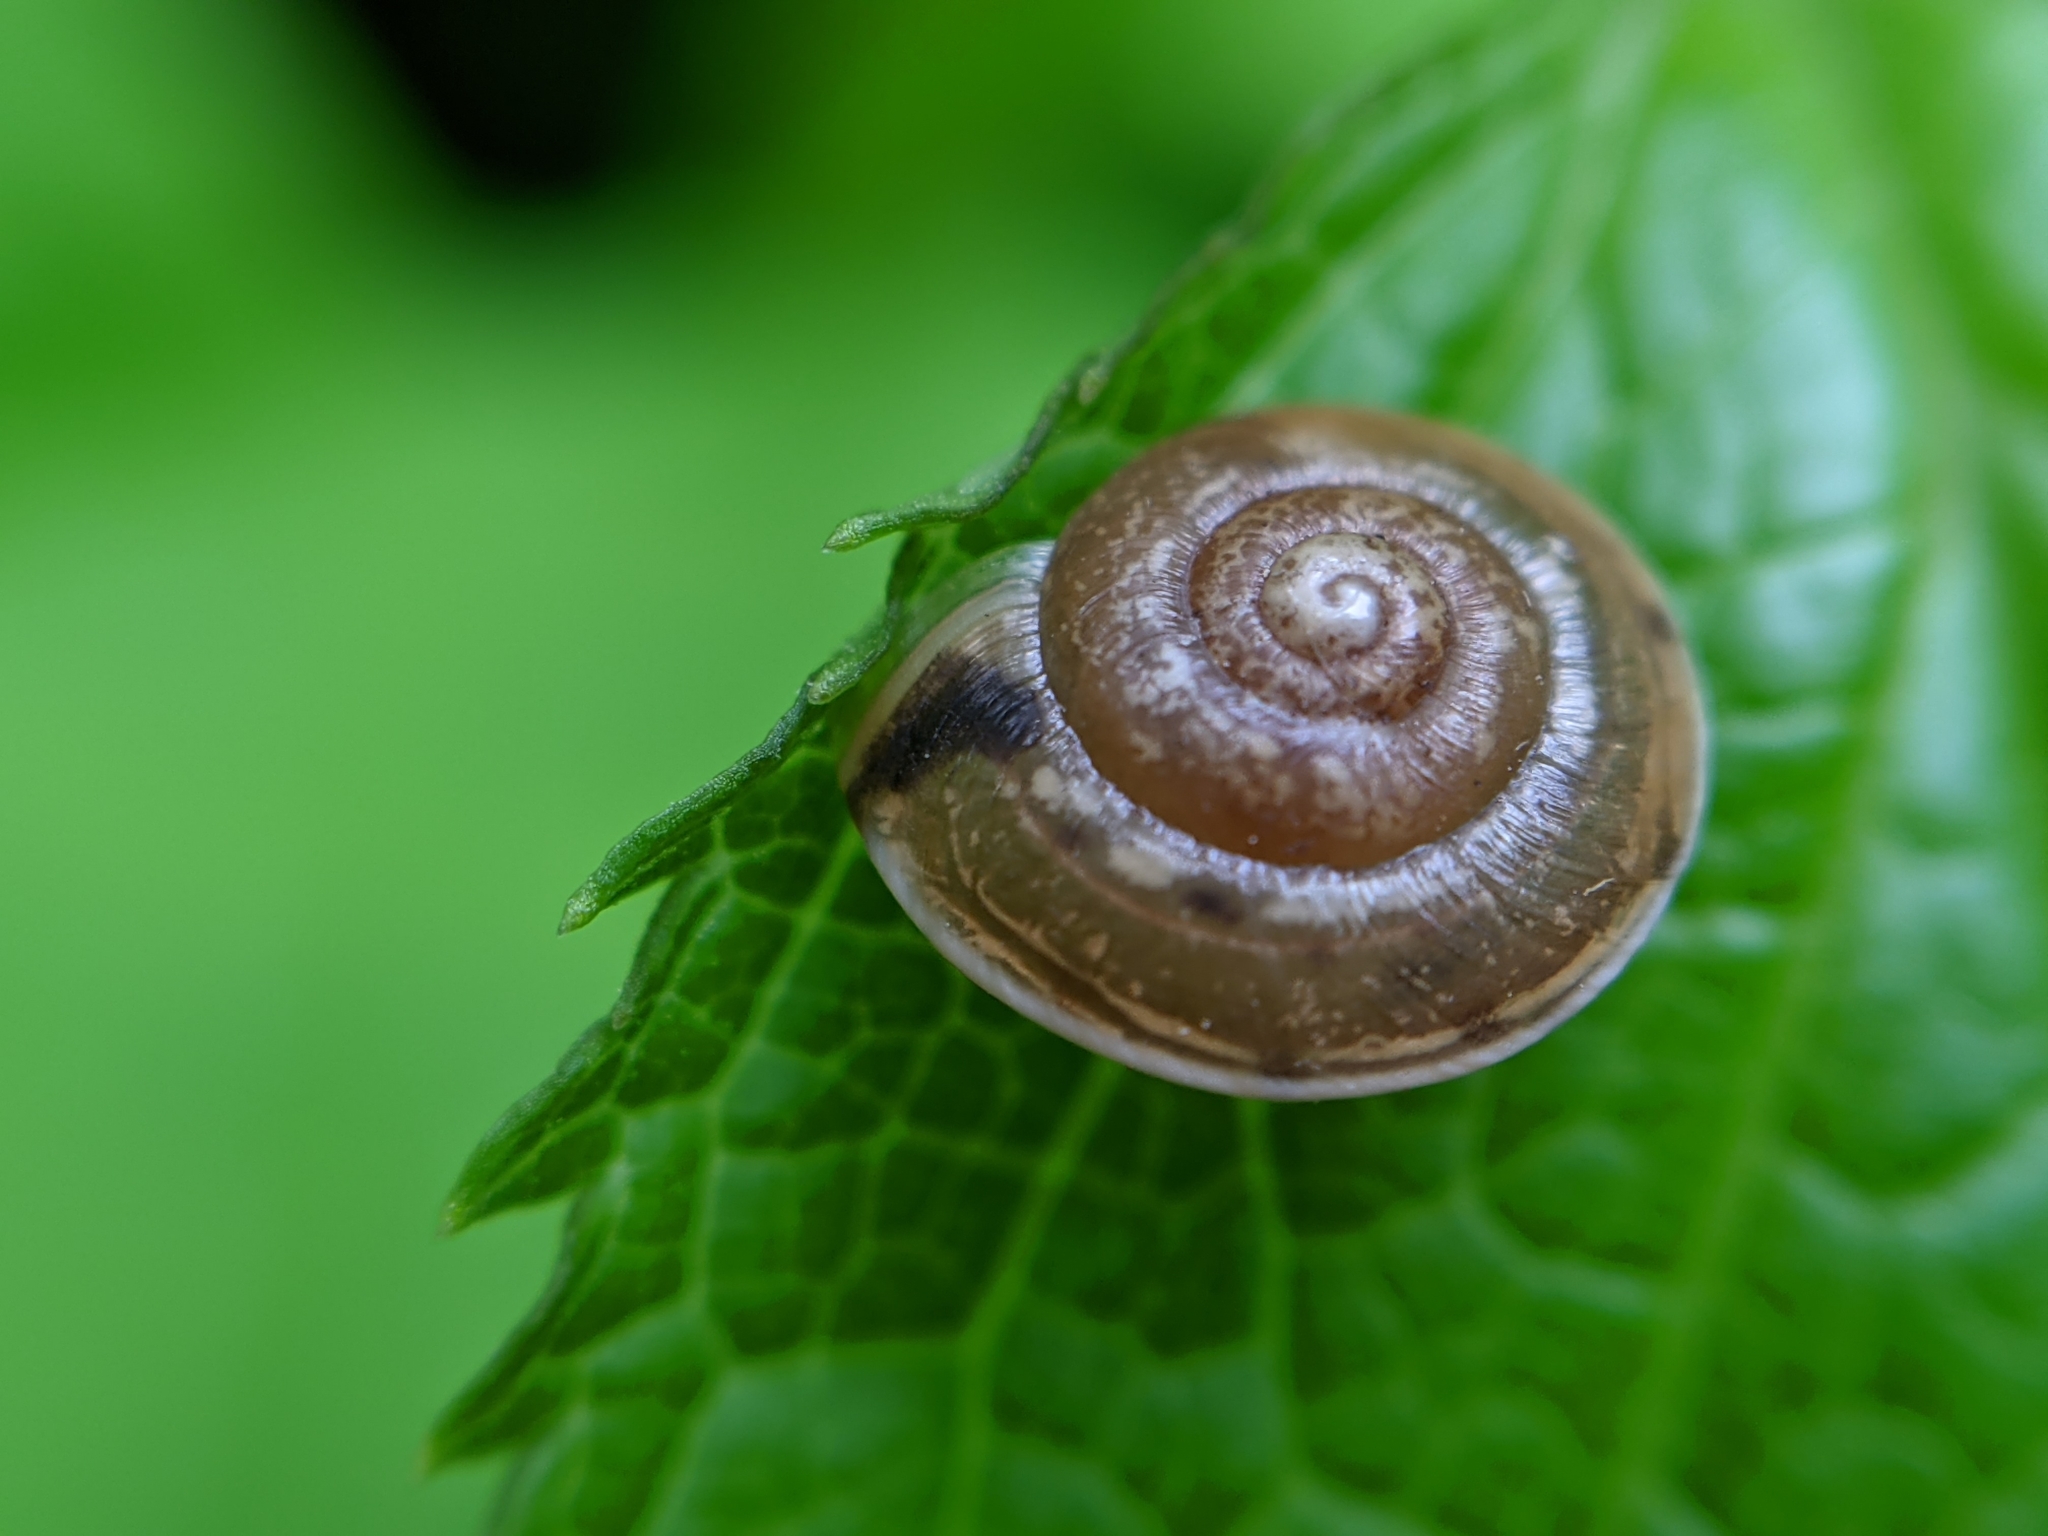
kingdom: Animalia
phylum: Mollusca
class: Gastropoda
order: Stylommatophora
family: Hygromiidae
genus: Hygromia
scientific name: Hygromia cinctella
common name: Girdled snail
